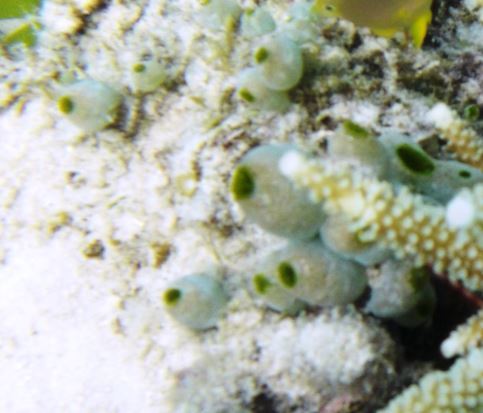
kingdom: Animalia
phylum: Chordata
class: Ascidiacea
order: Aplousobranchia
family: Didemnidae
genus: Didemnum
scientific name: Didemnum molle
